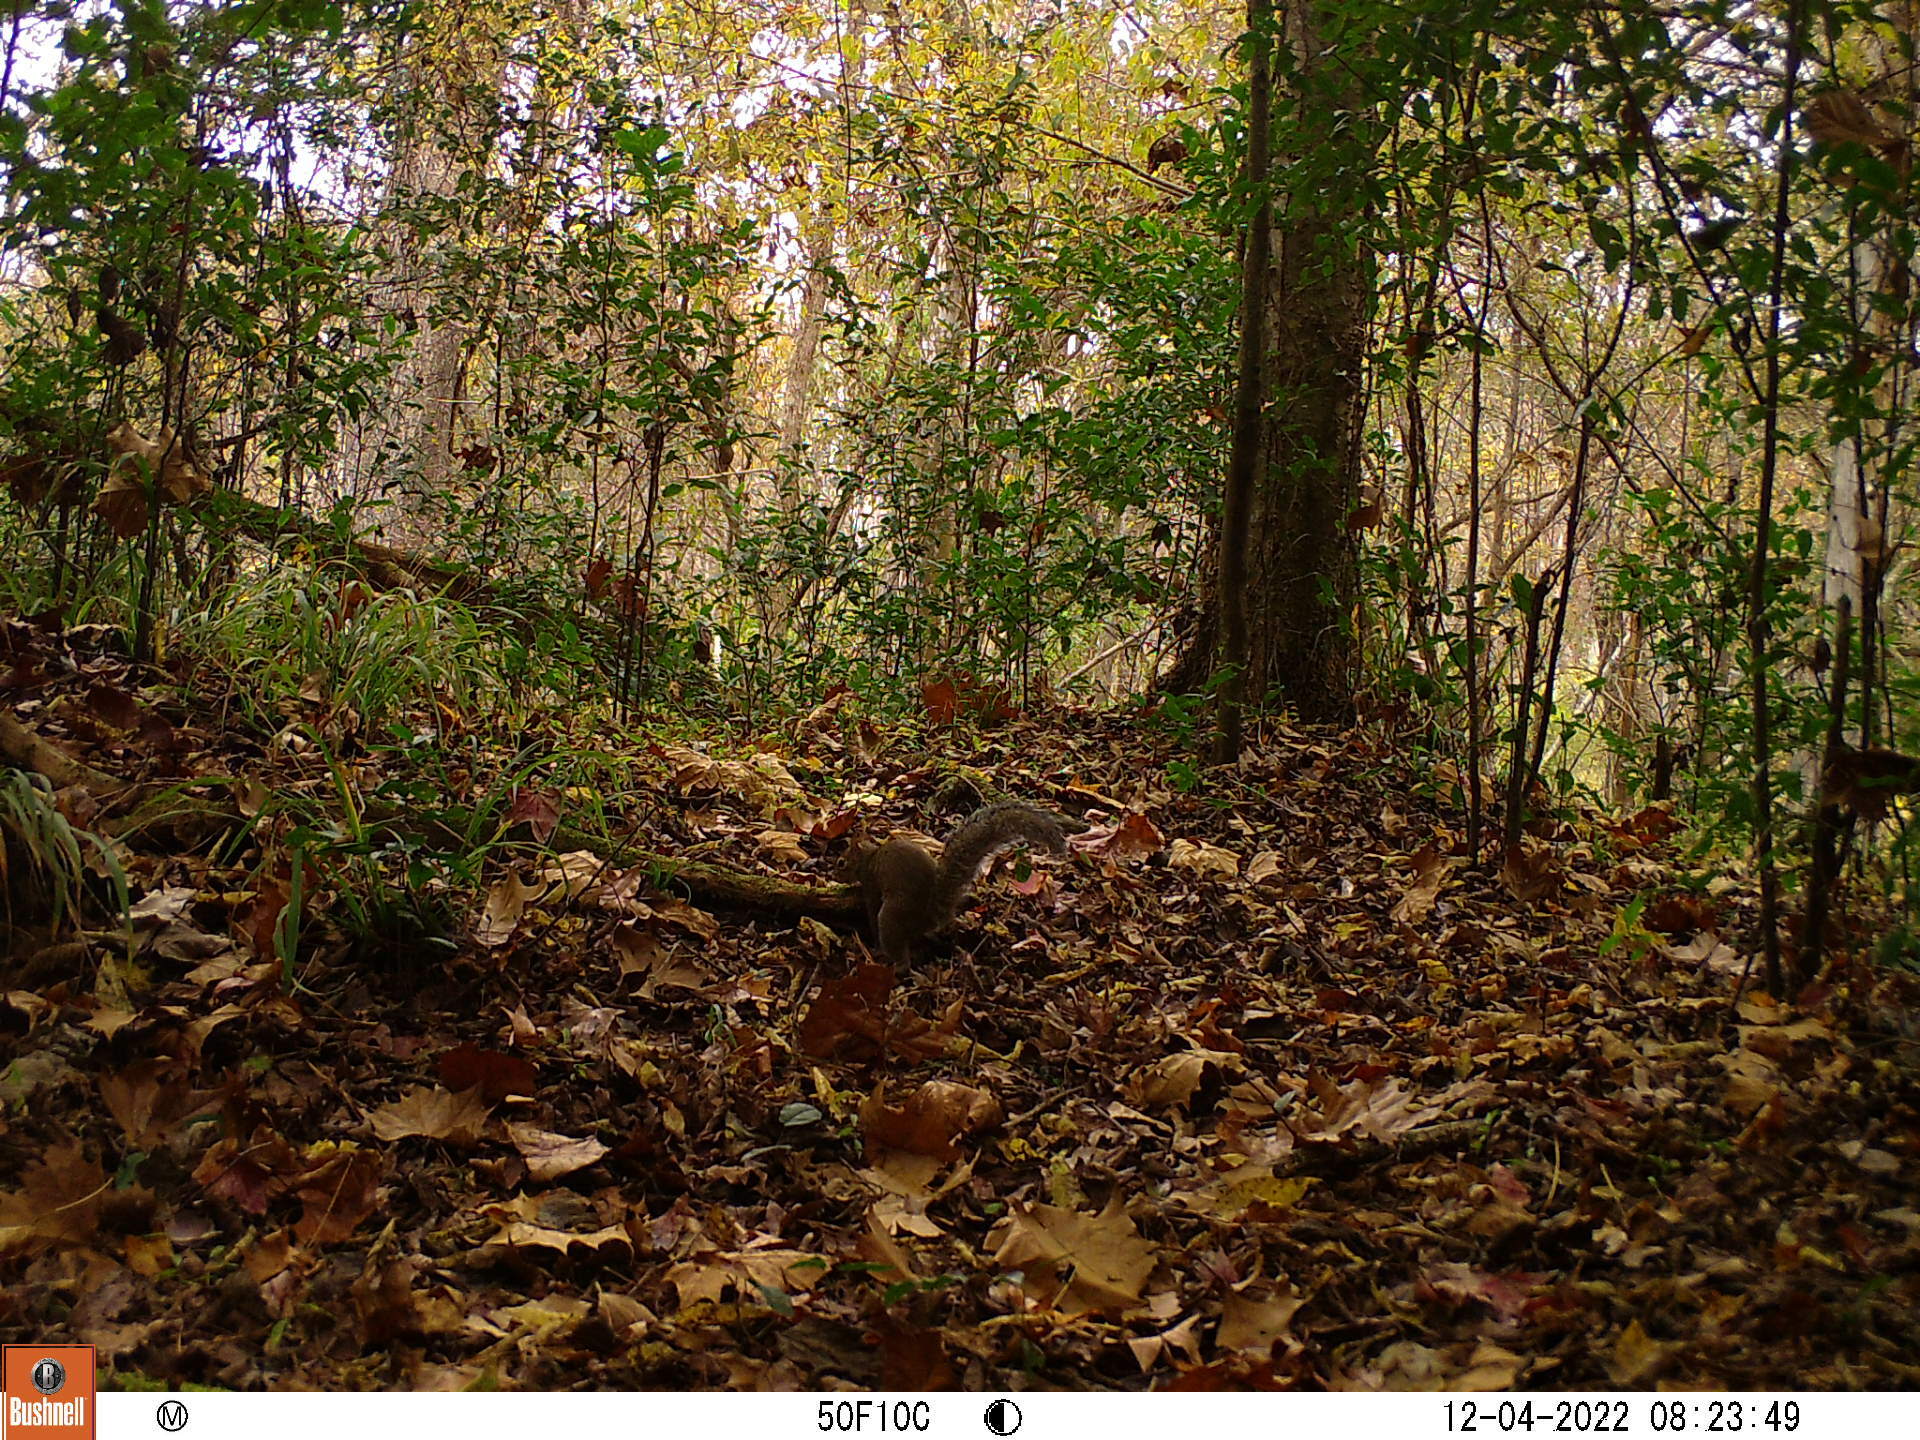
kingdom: Animalia
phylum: Chordata
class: Mammalia
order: Rodentia
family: Sciuridae
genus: Sciurus
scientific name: Sciurus carolinensis
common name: Eastern gray squirrel
